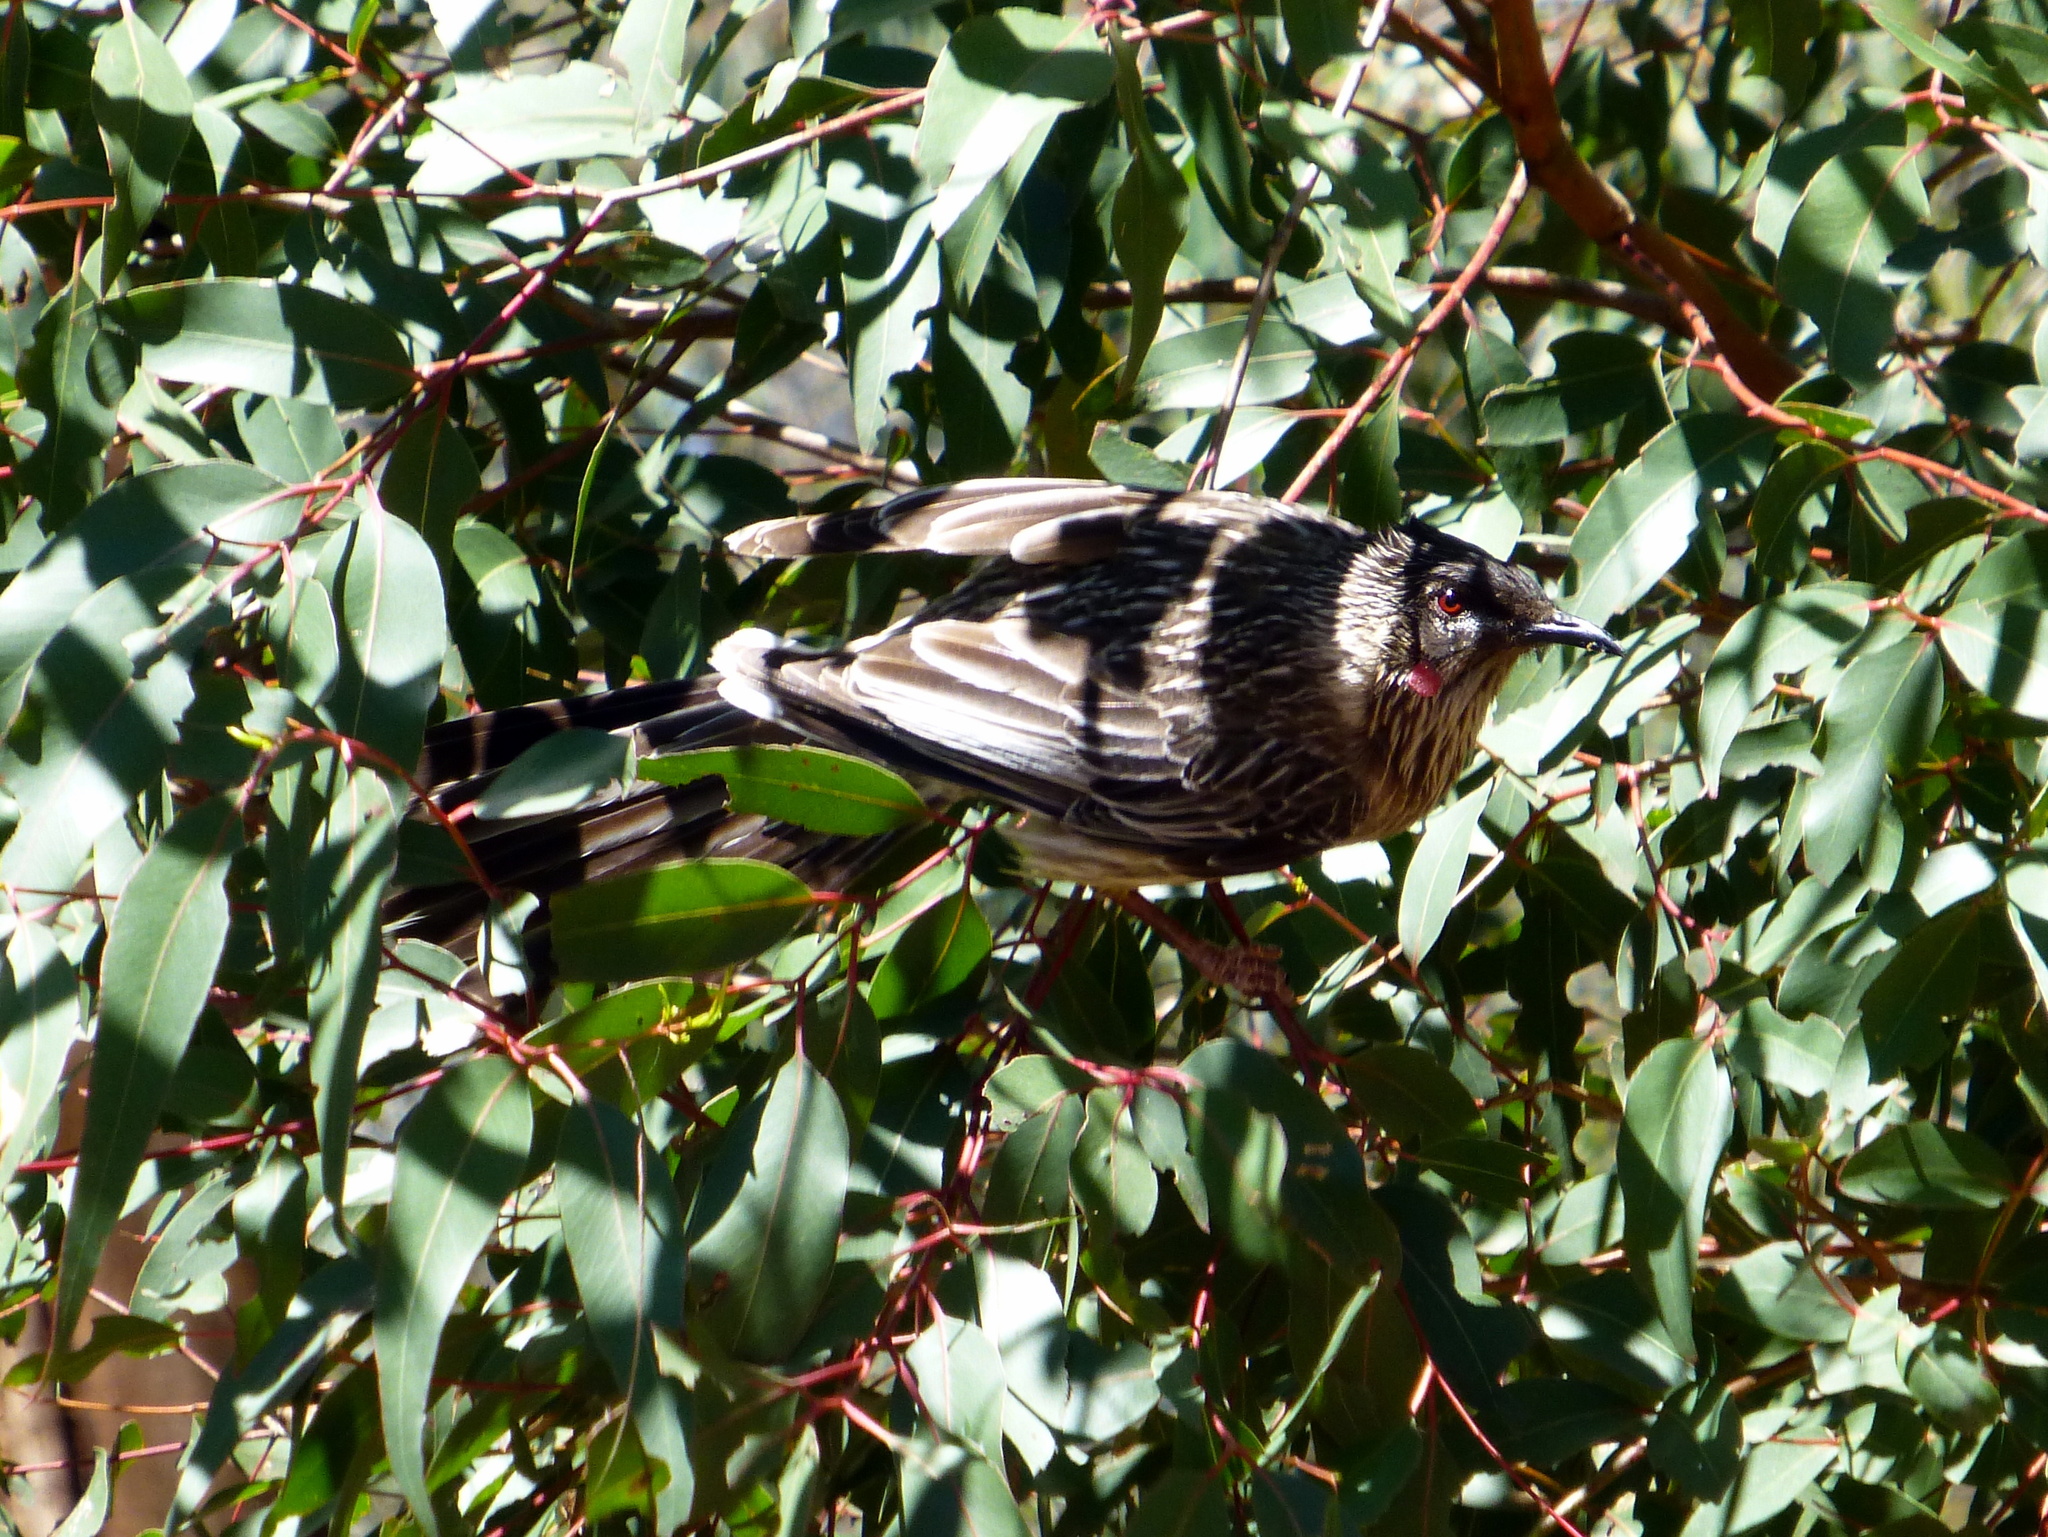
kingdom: Animalia
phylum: Chordata
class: Aves
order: Passeriformes
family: Meliphagidae
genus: Anthochaera
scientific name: Anthochaera carunculata
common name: Red wattlebird
